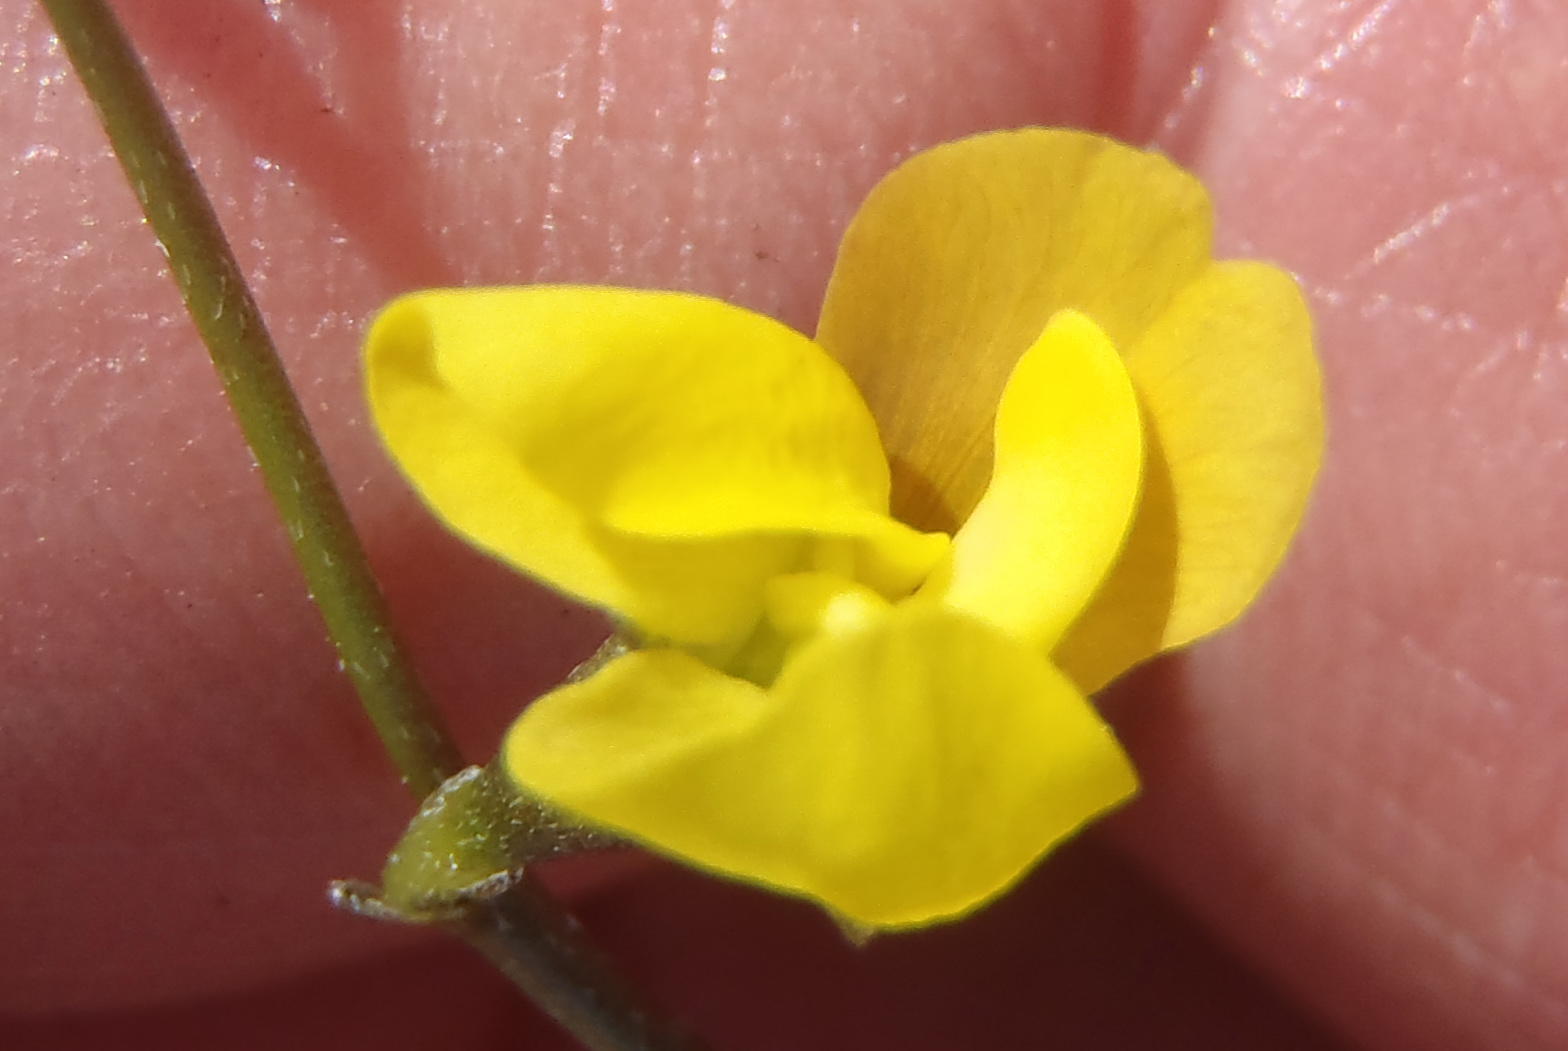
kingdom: Plantae
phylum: Tracheophyta
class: Magnoliopsida
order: Fabales
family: Fabaceae
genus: Lebeckia
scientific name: Lebeckia wrightii
